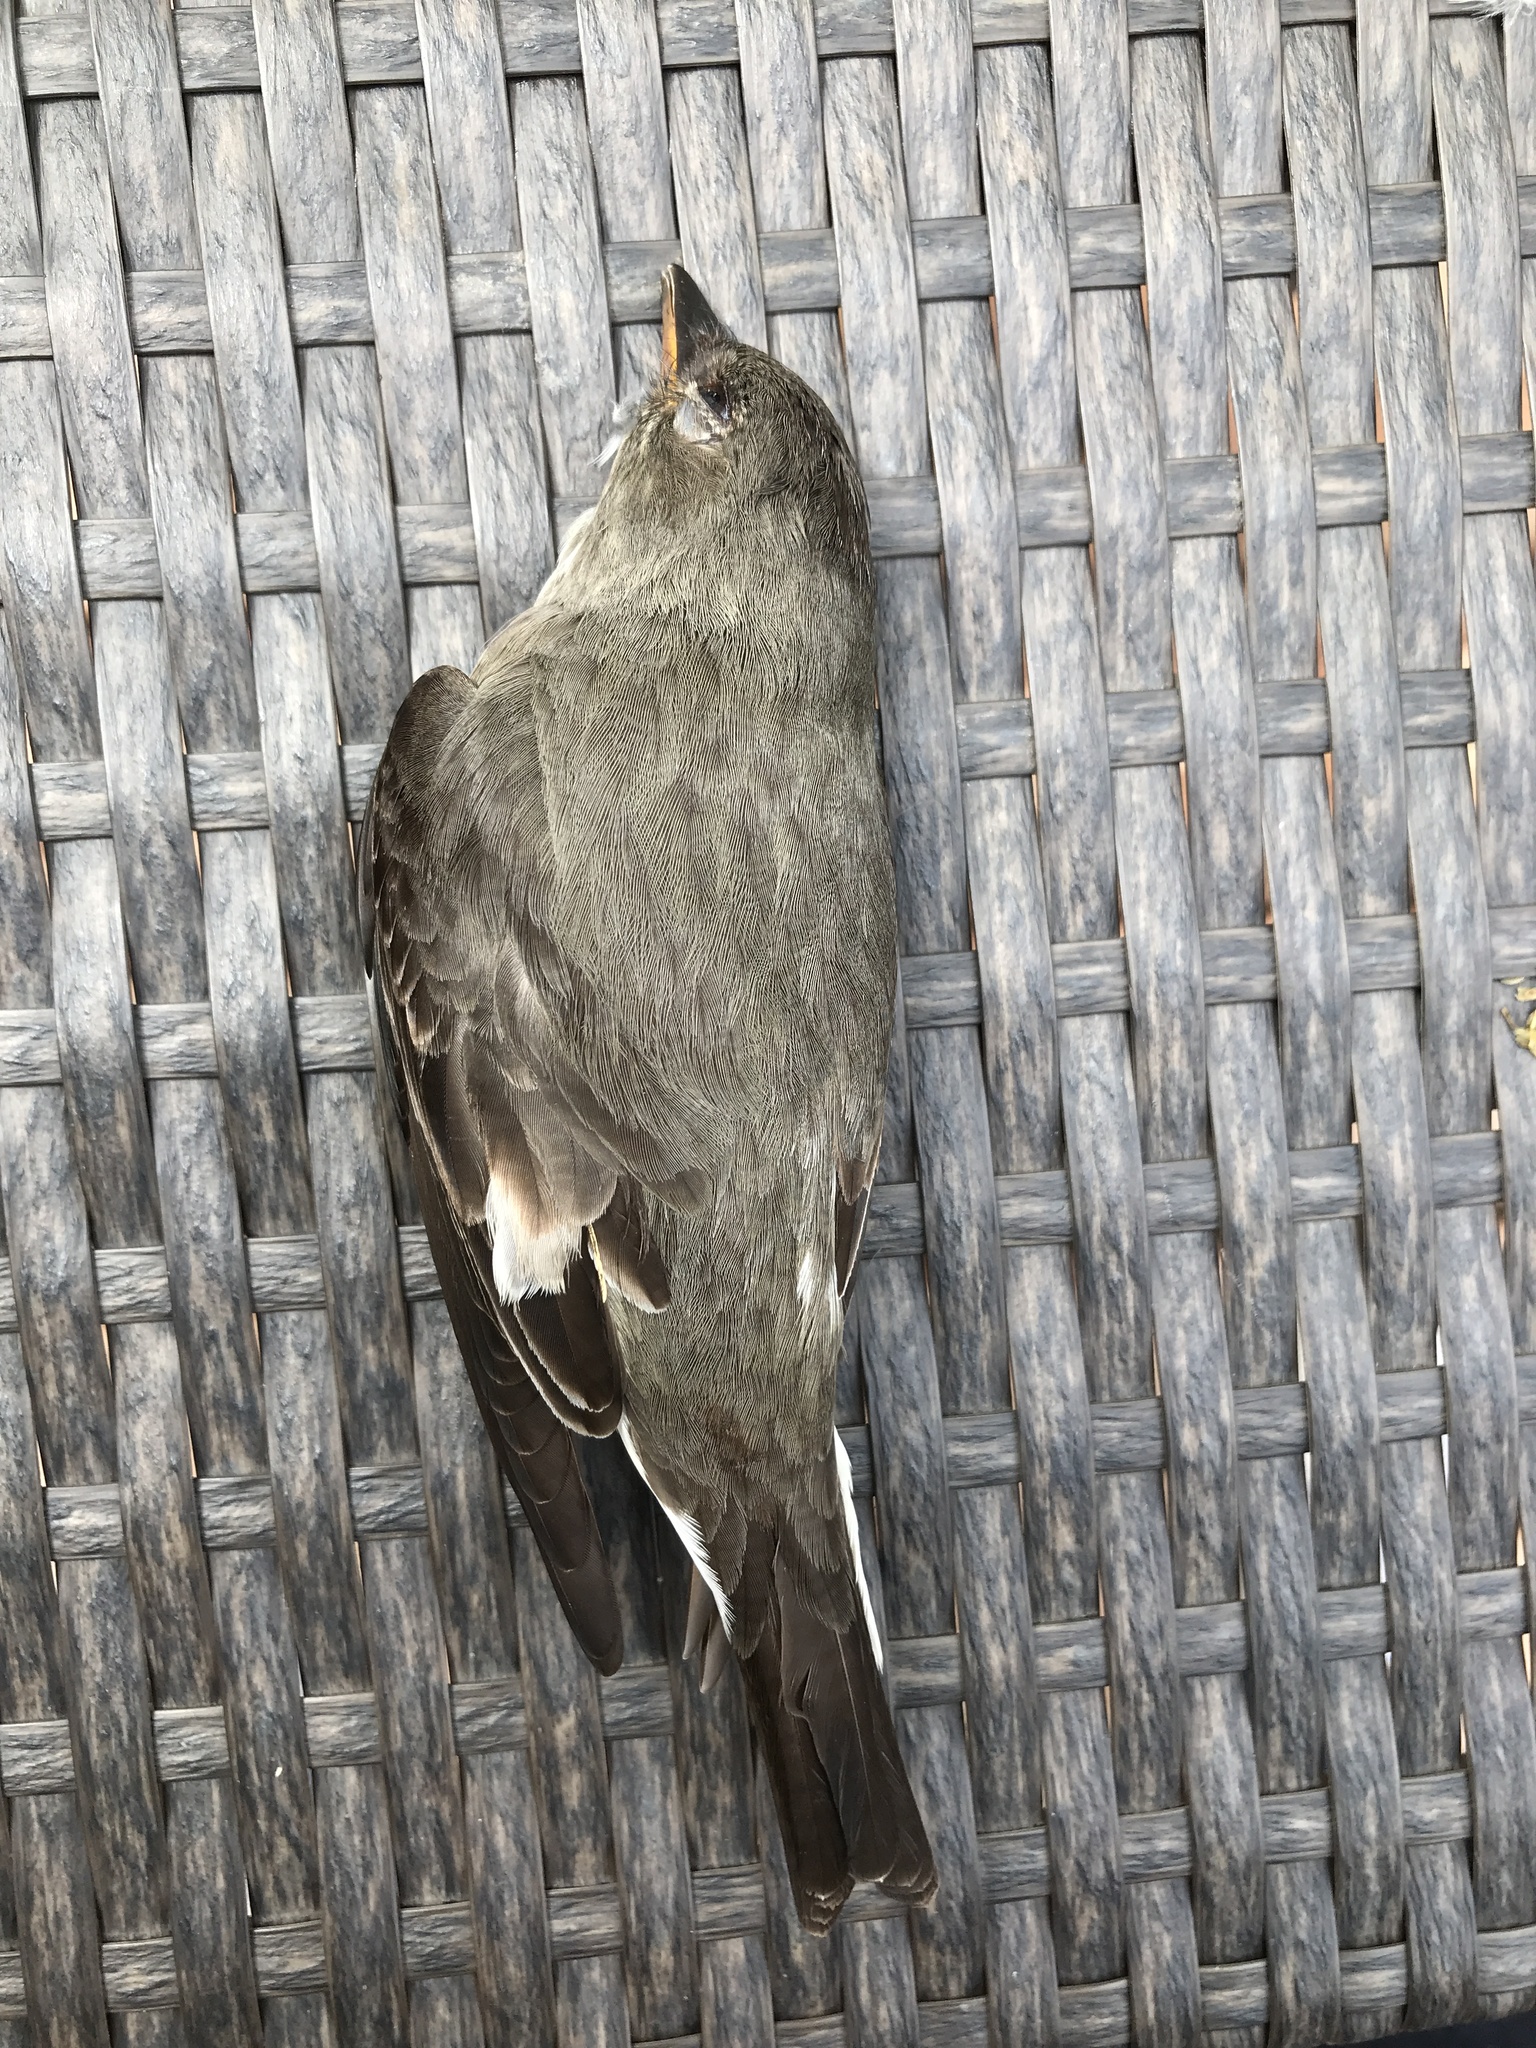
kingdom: Animalia
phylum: Chordata
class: Aves
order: Passeriformes
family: Tyrannidae
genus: Contopus
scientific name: Contopus cooperi
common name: Olive-sided flycatcher
